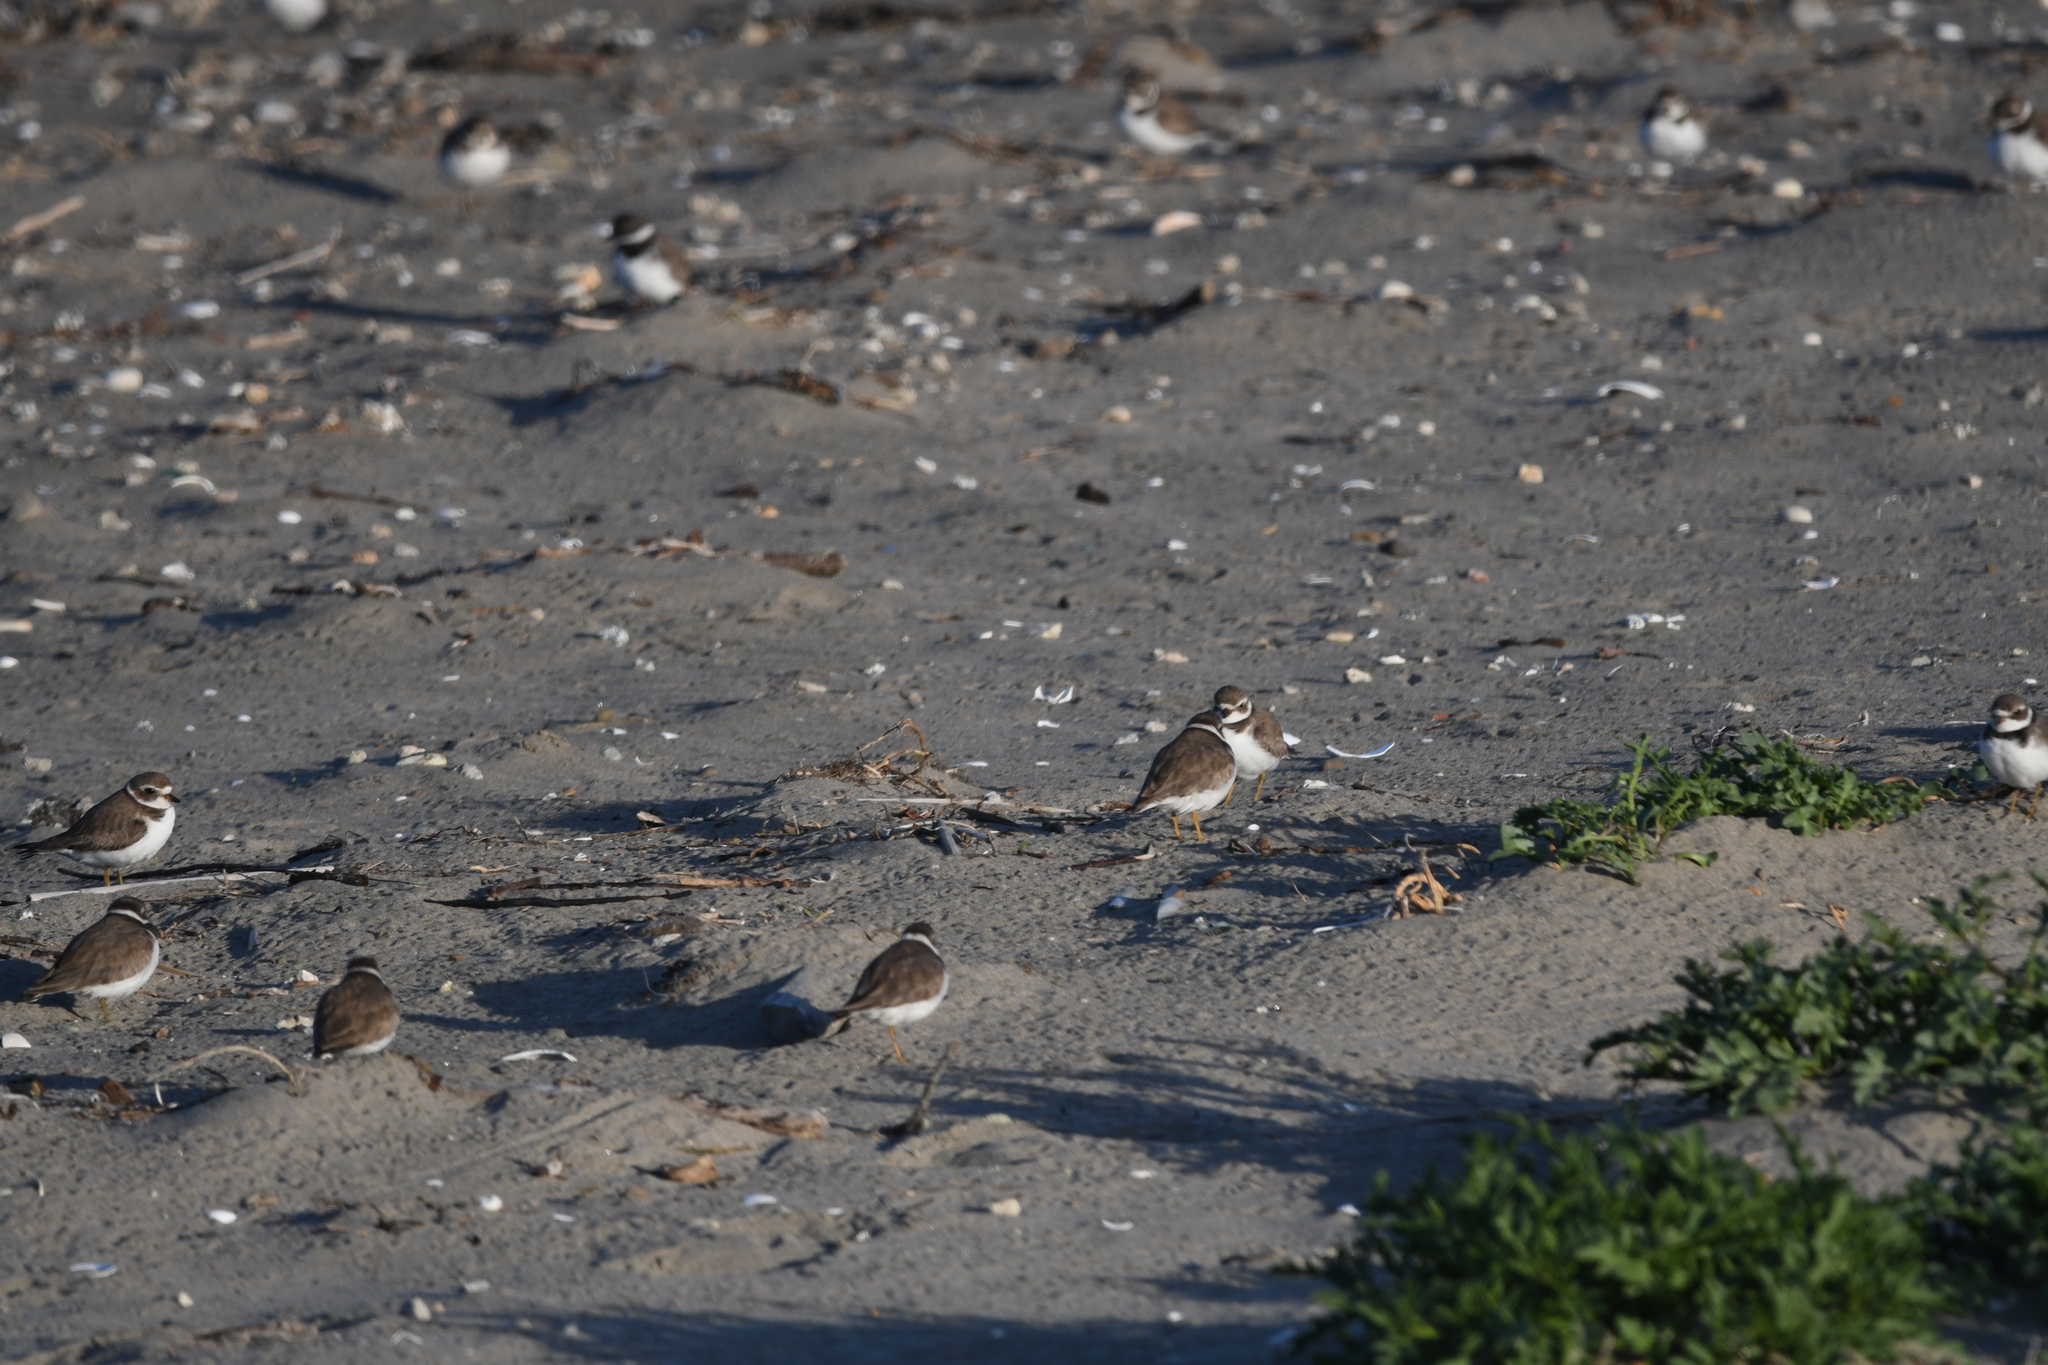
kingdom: Animalia
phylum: Chordata
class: Aves
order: Charadriiformes
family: Charadriidae
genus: Charadrius
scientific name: Charadrius semipalmatus
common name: Semipalmated plover
